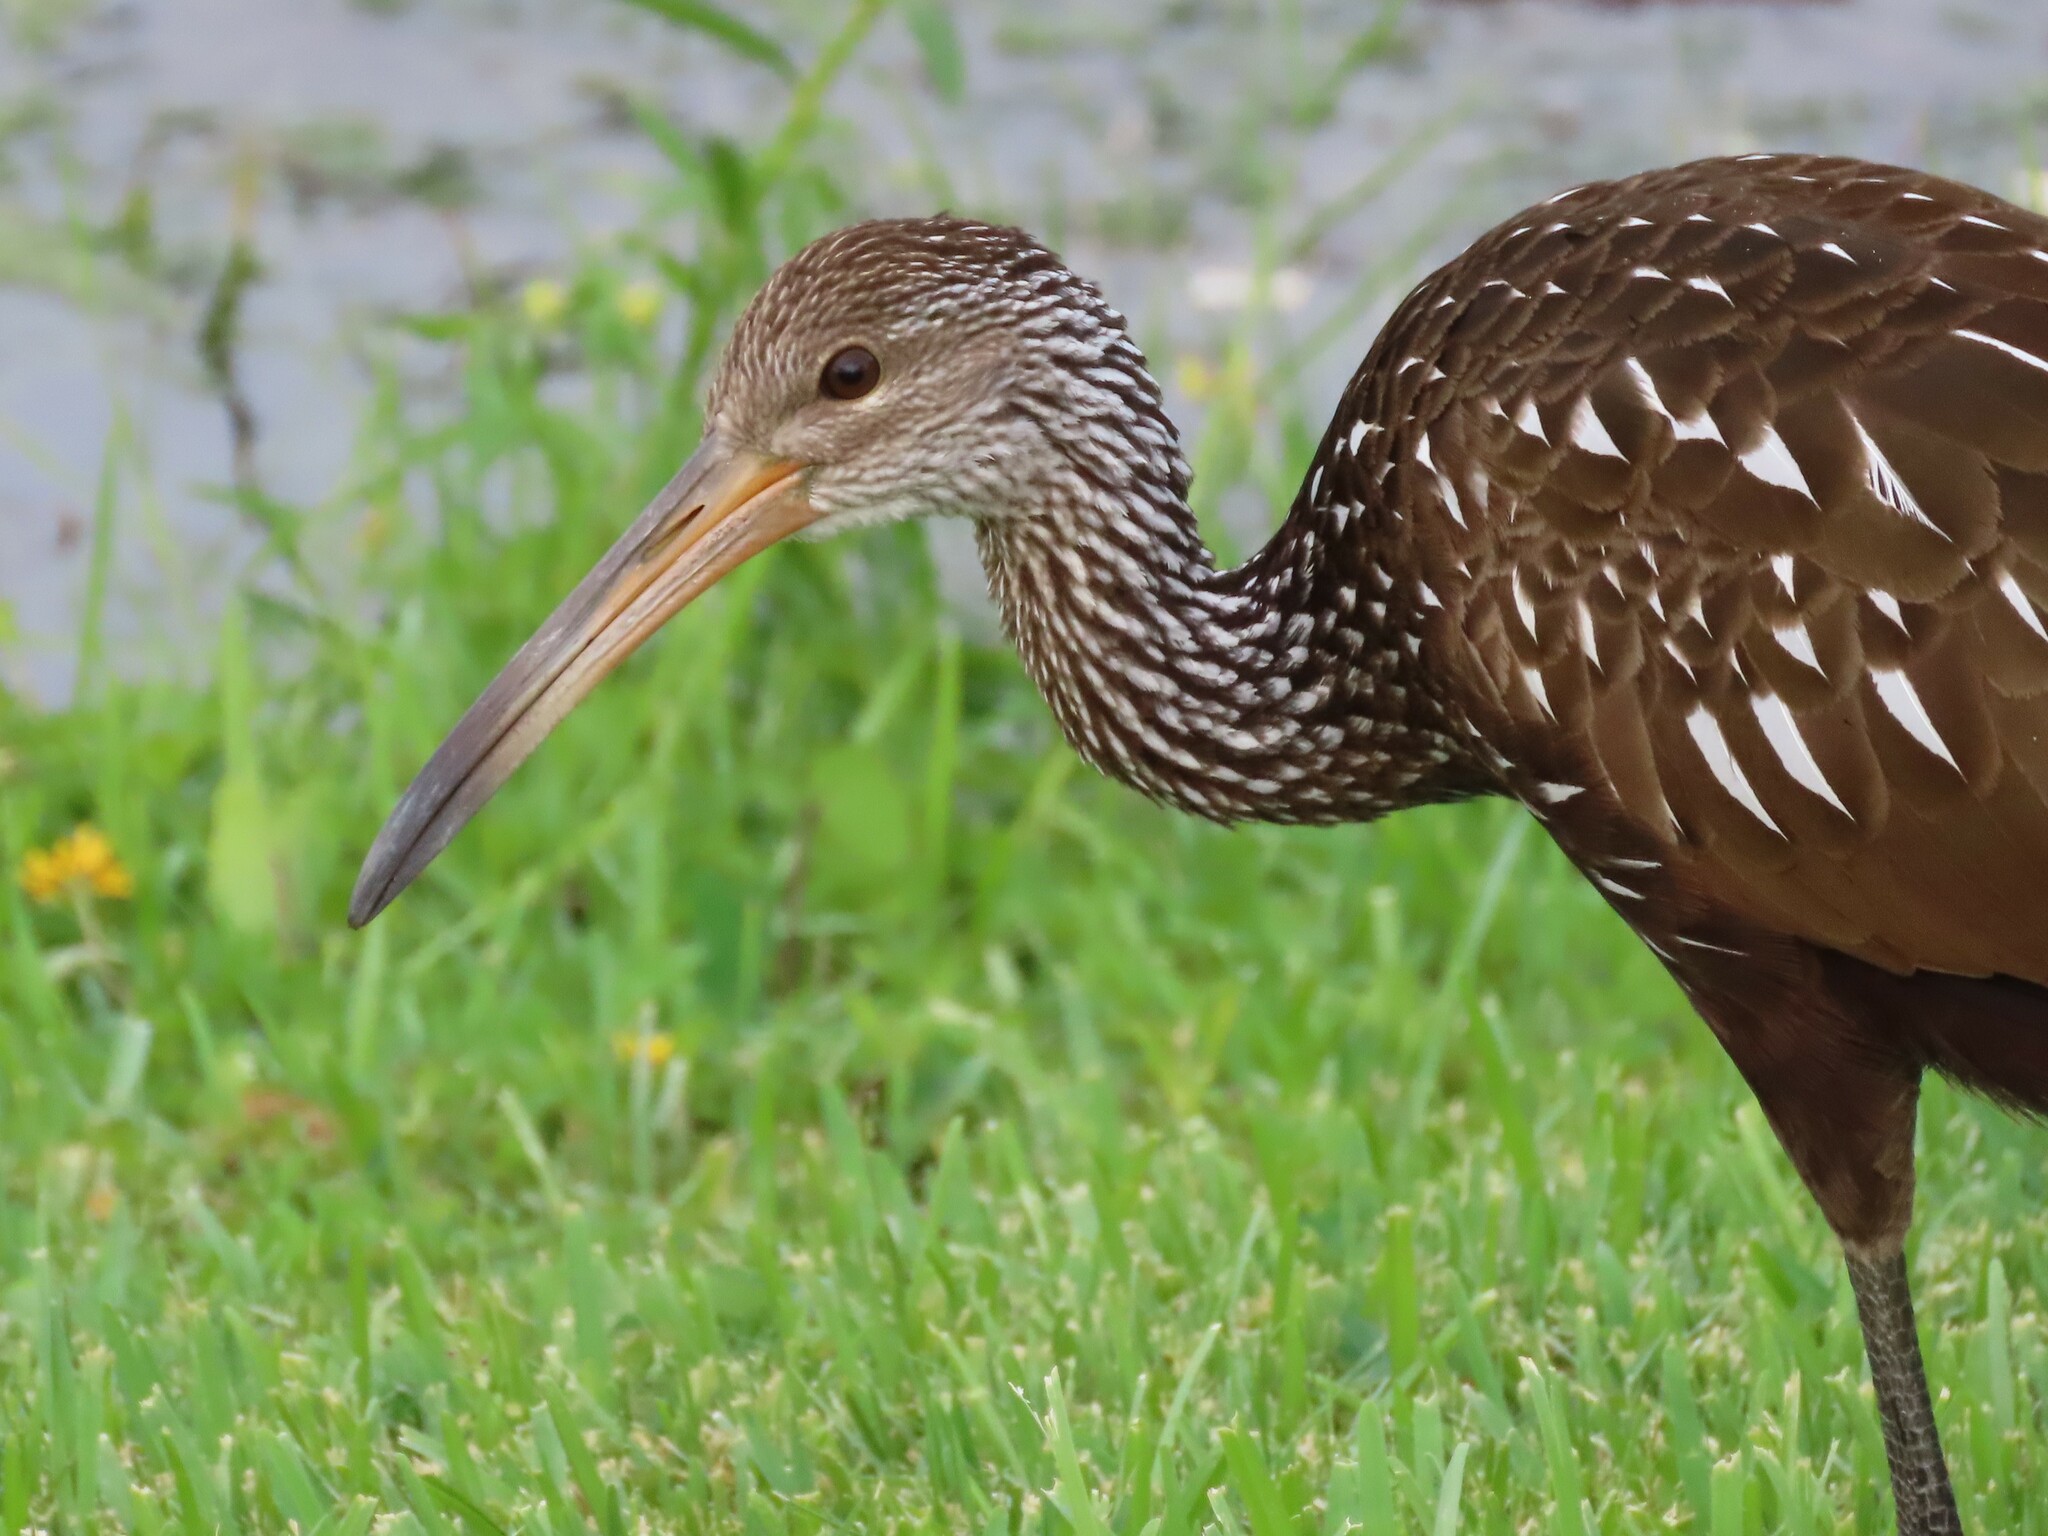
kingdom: Animalia
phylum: Chordata
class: Aves
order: Gruiformes
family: Aramidae
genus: Aramus
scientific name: Aramus guarauna
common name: Limpkin
